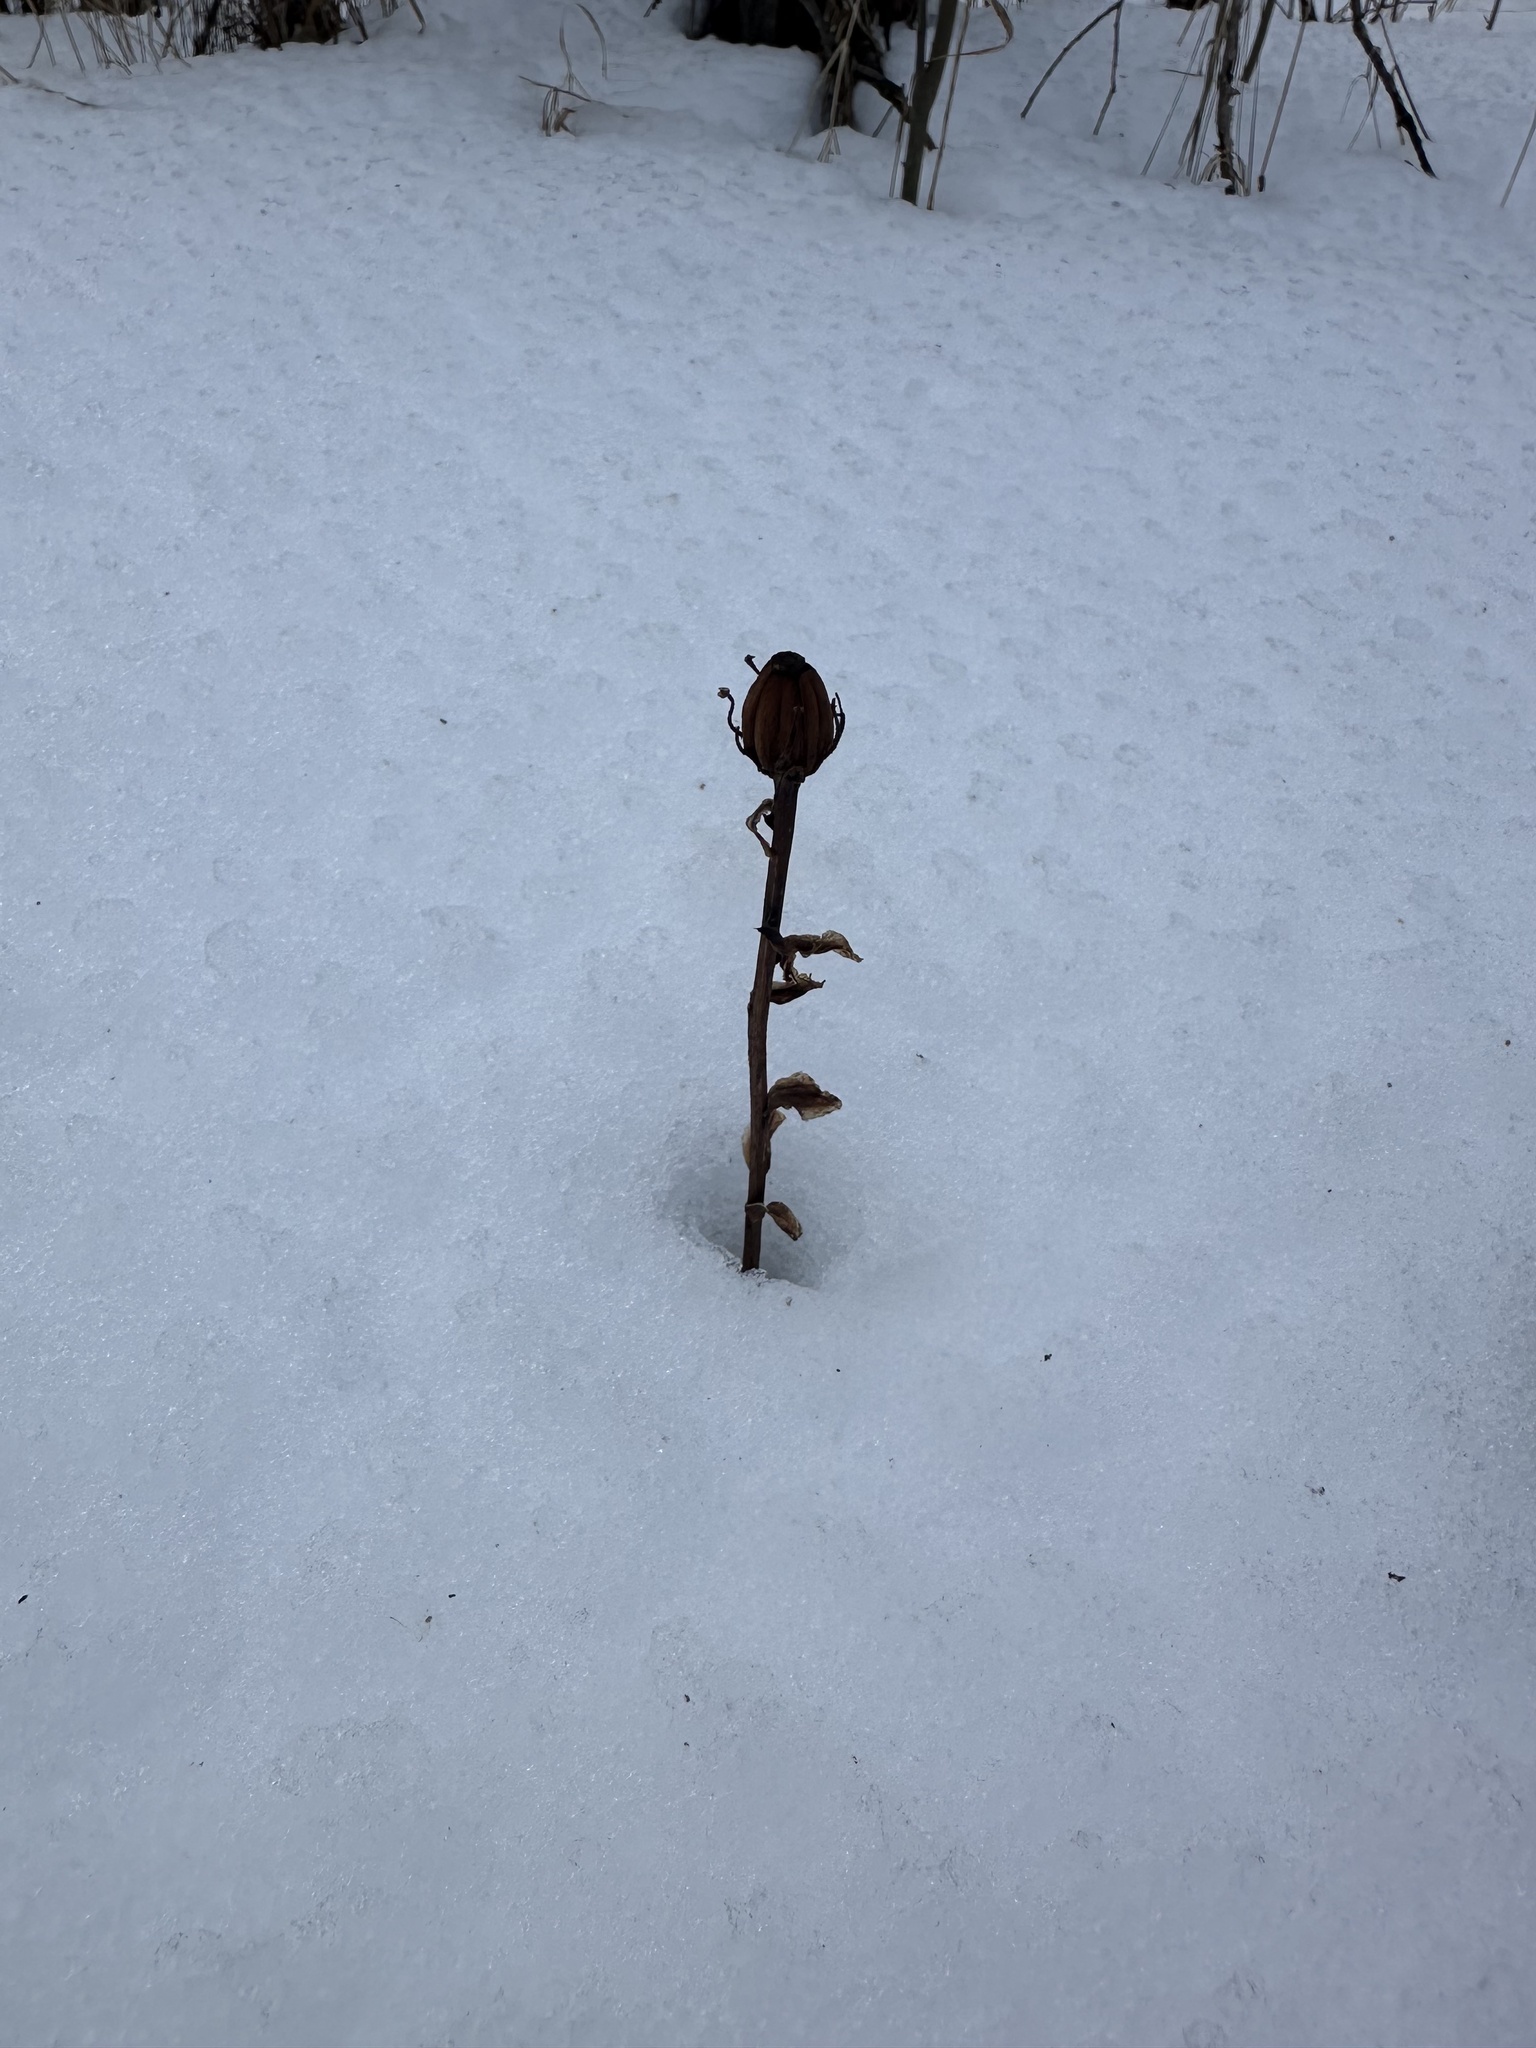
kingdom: Plantae
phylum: Tracheophyta
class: Magnoliopsida
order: Ericales
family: Ericaceae
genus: Monotropa
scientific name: Monotropa uniflora
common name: Convulsion root
